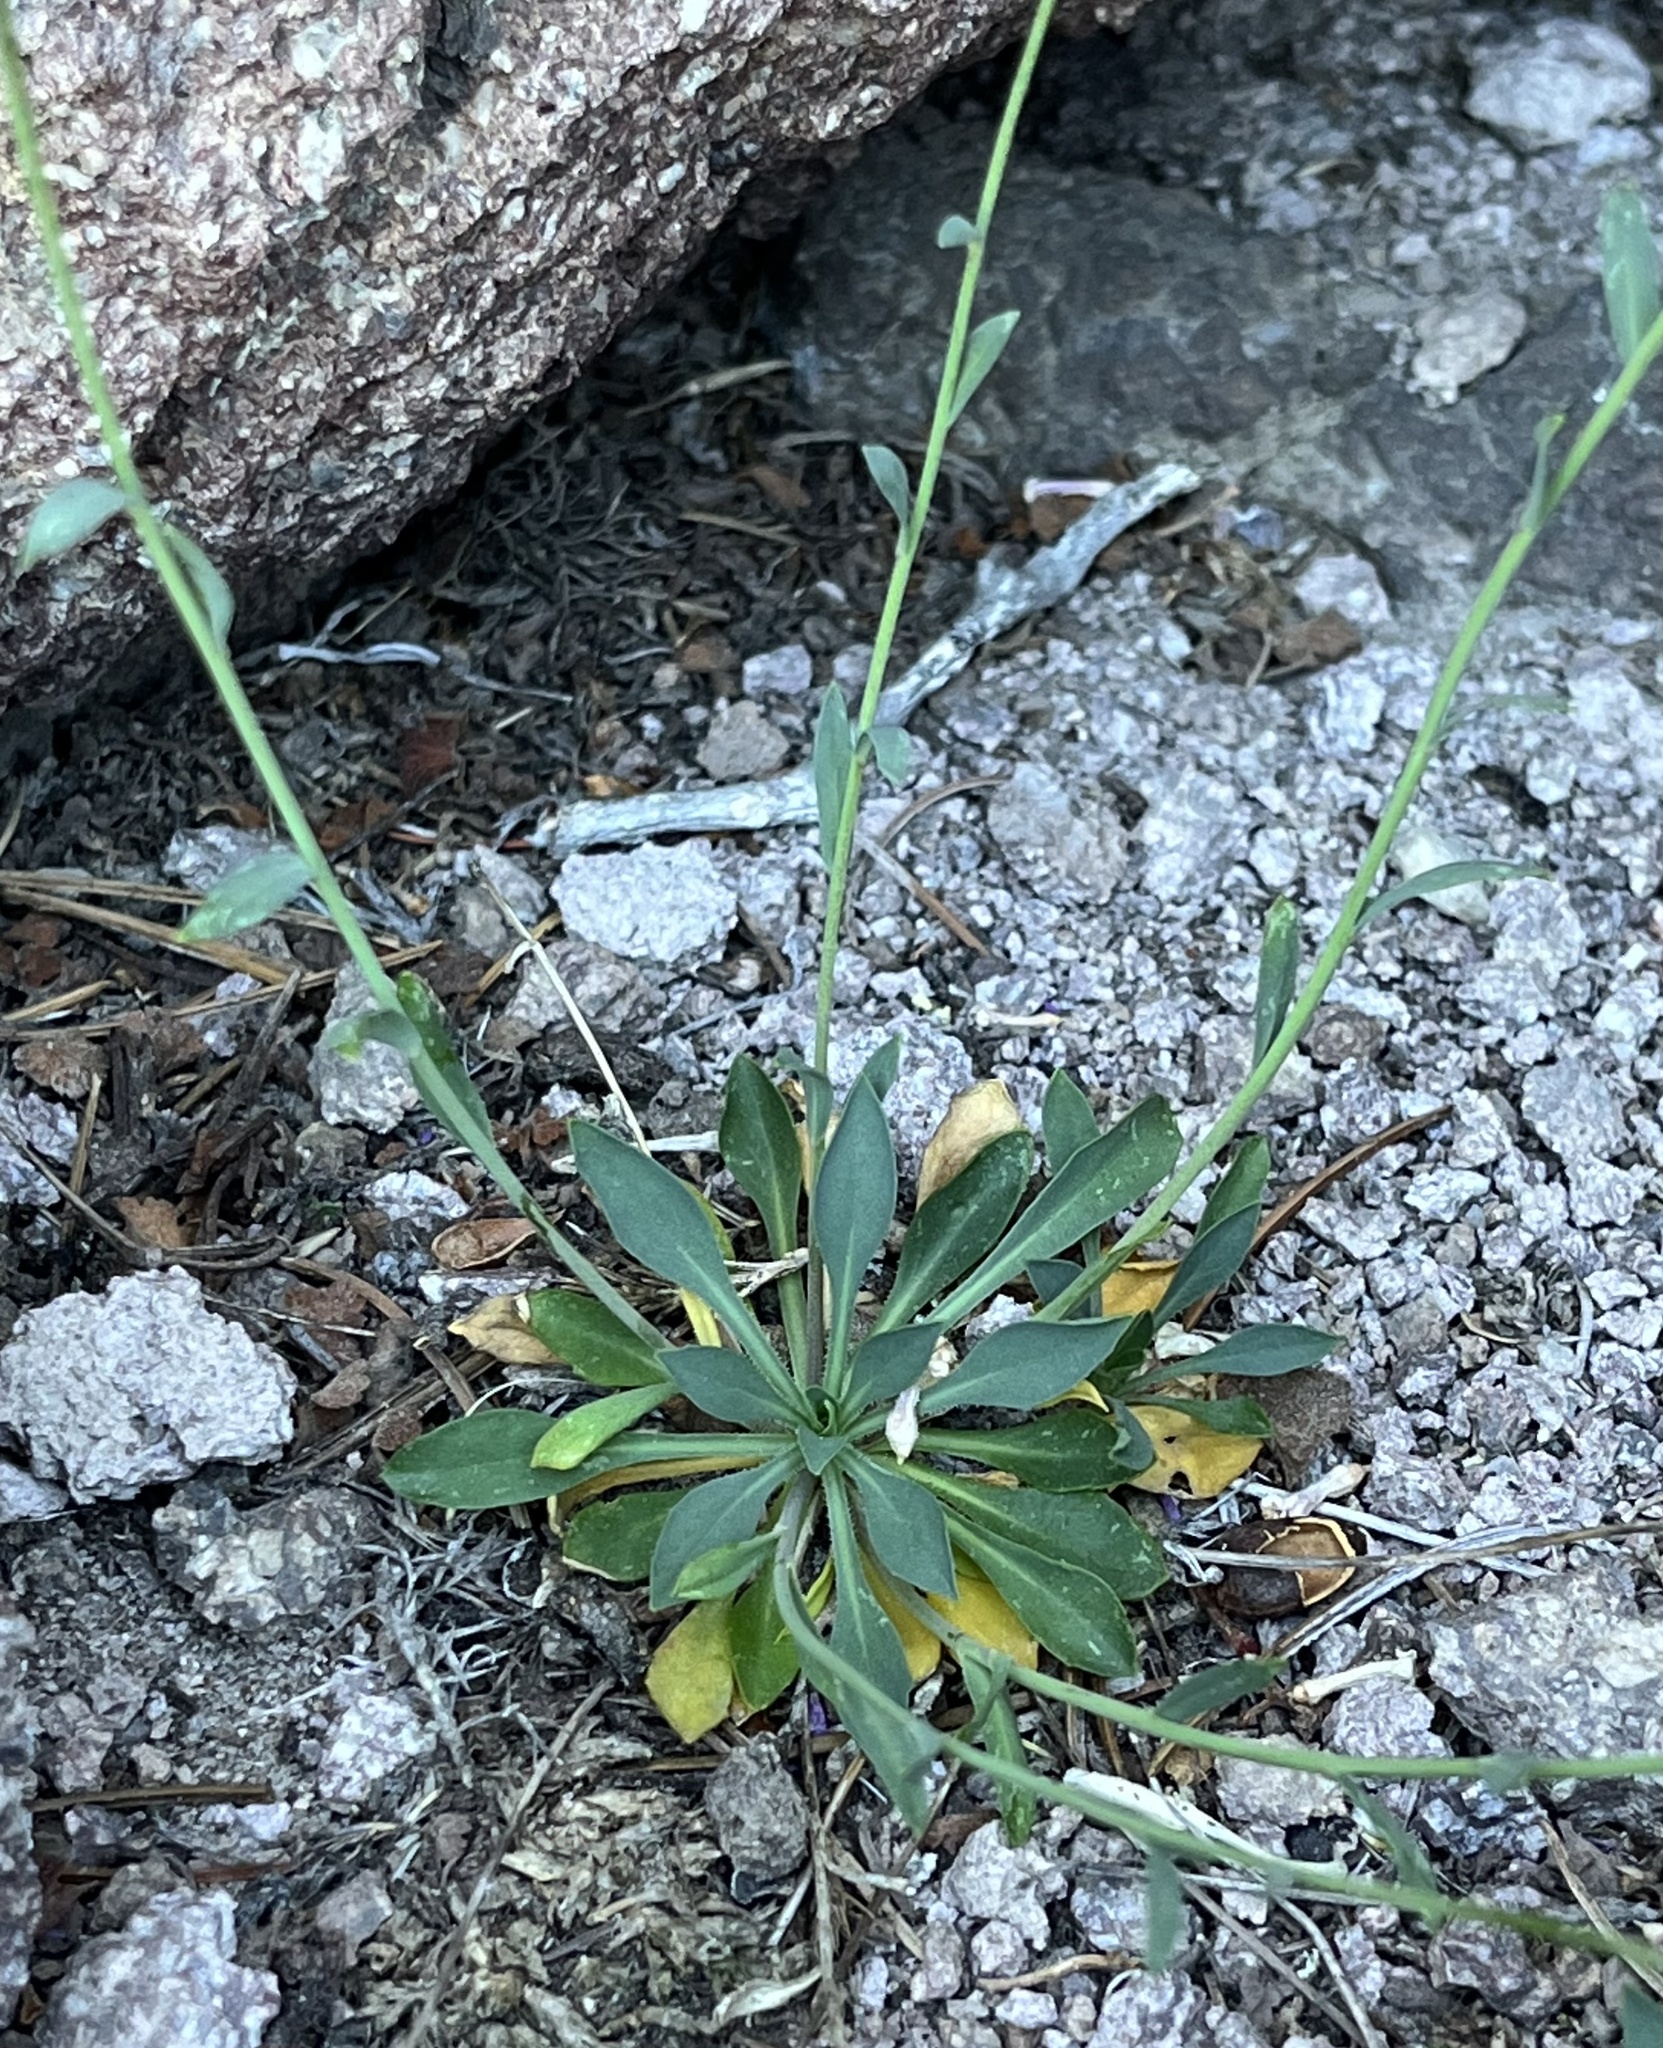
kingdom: Plantae
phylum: Tracheophyta
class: Magnoliopsida
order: Brassicales
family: Brassicaceae
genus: Boechera
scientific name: Boechera tiehmii
